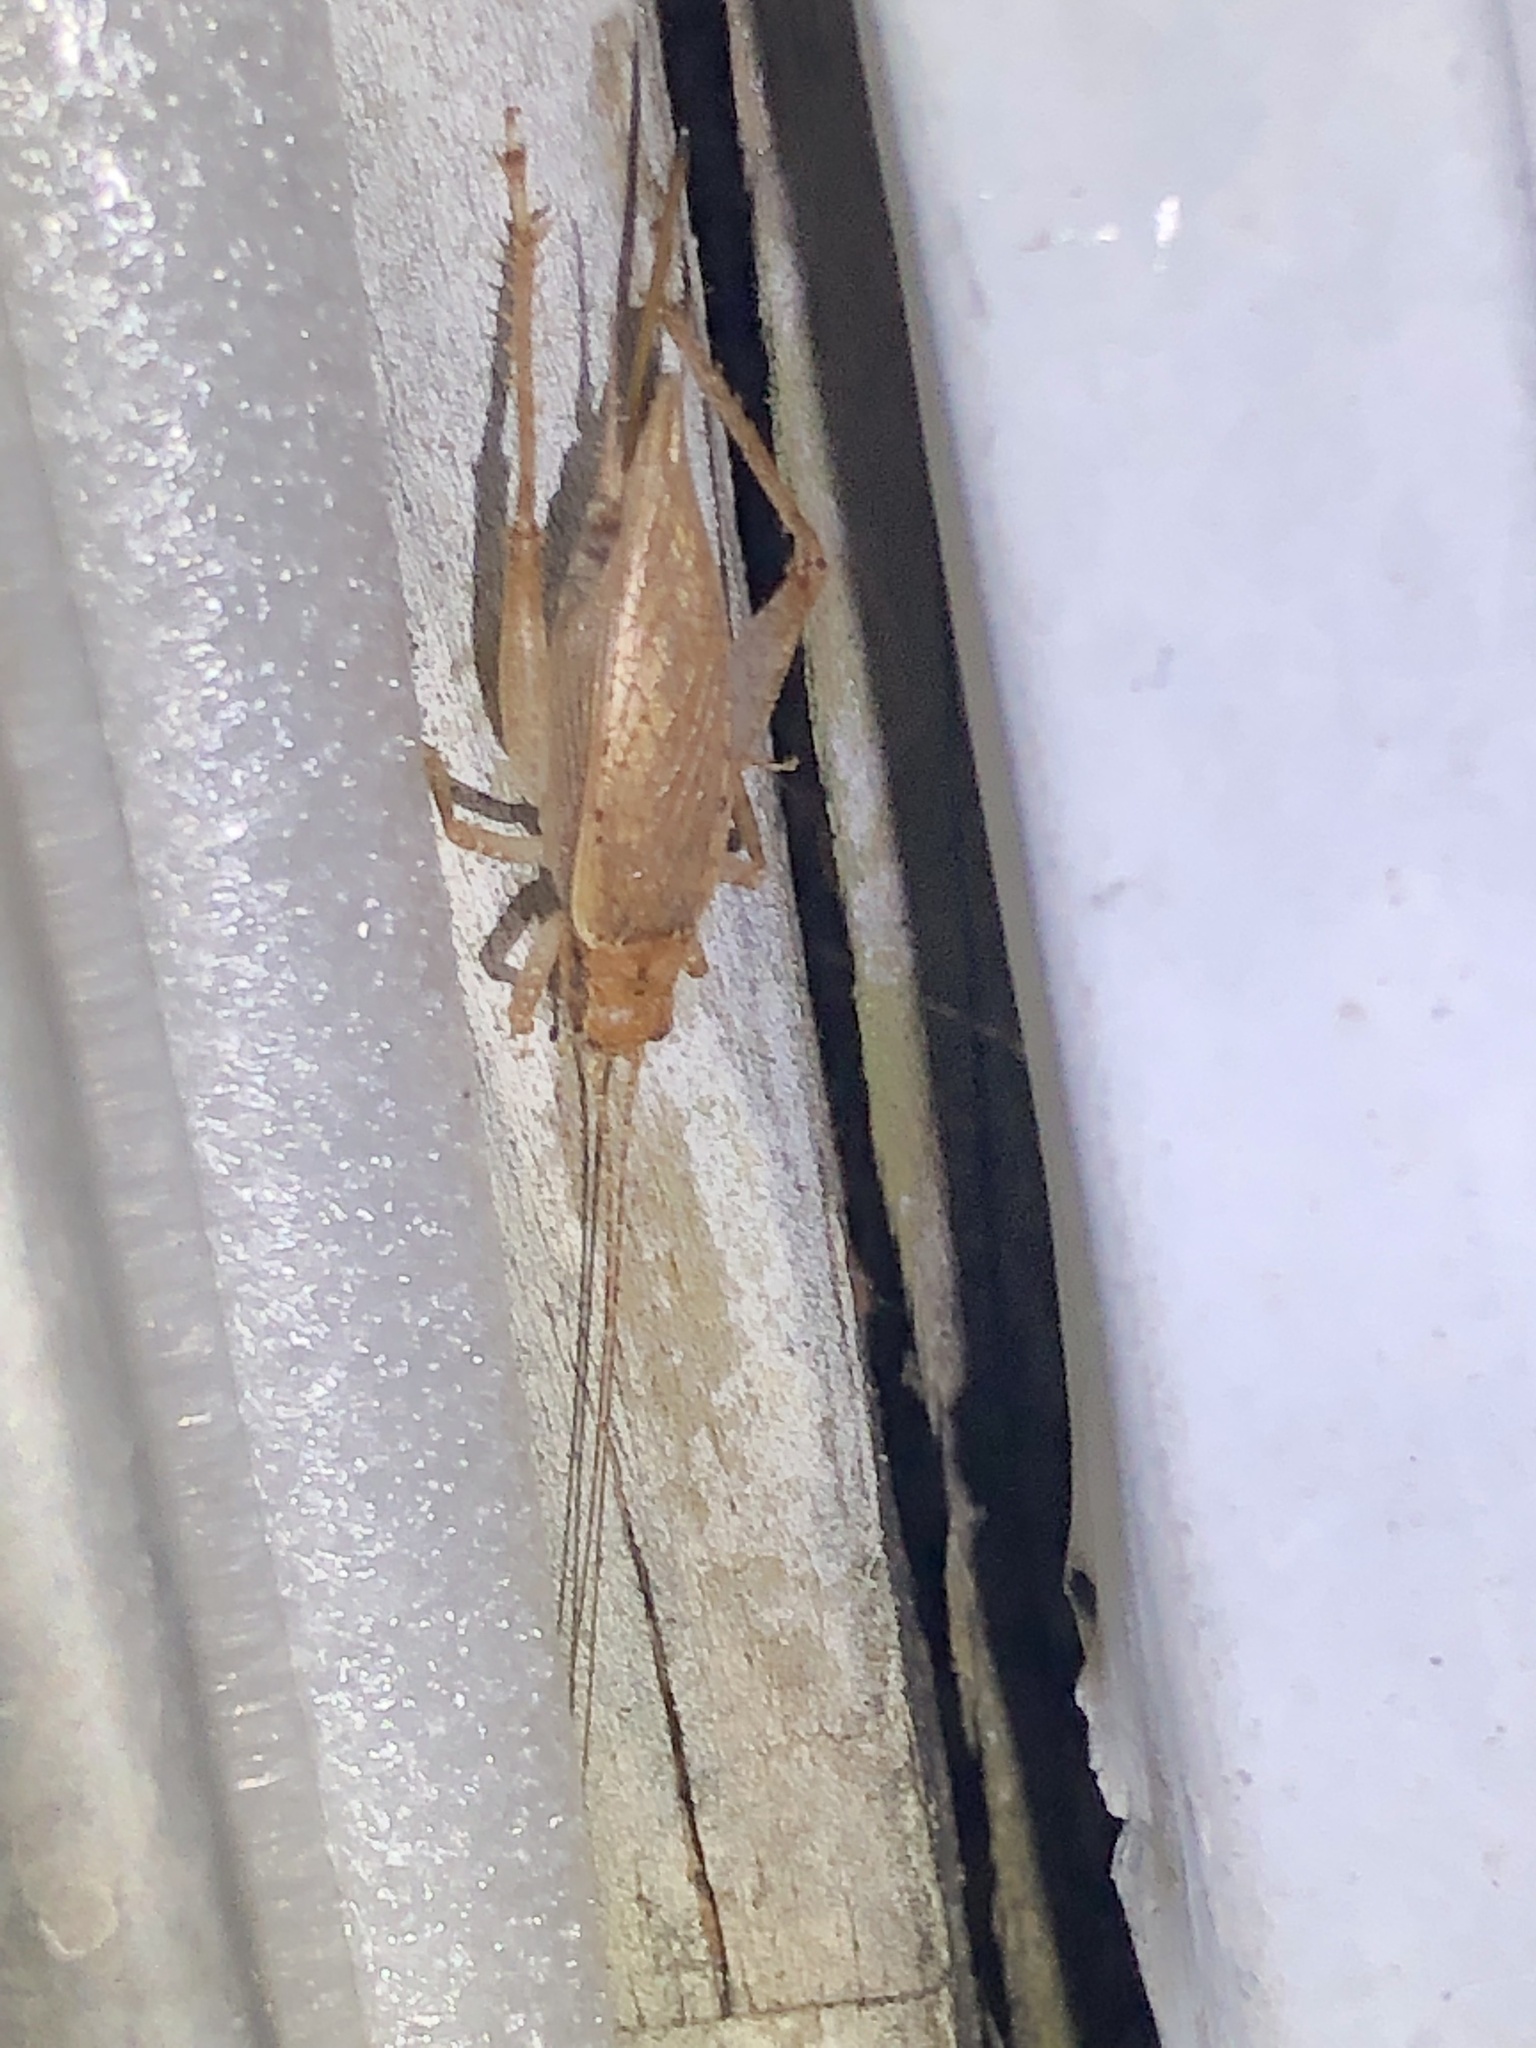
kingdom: Animalia
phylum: Arthropoda
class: Insecta
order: Orthoptera
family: Gryllidae
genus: Hapithus
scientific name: Hapithus saltator
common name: Jumping bush cricket
